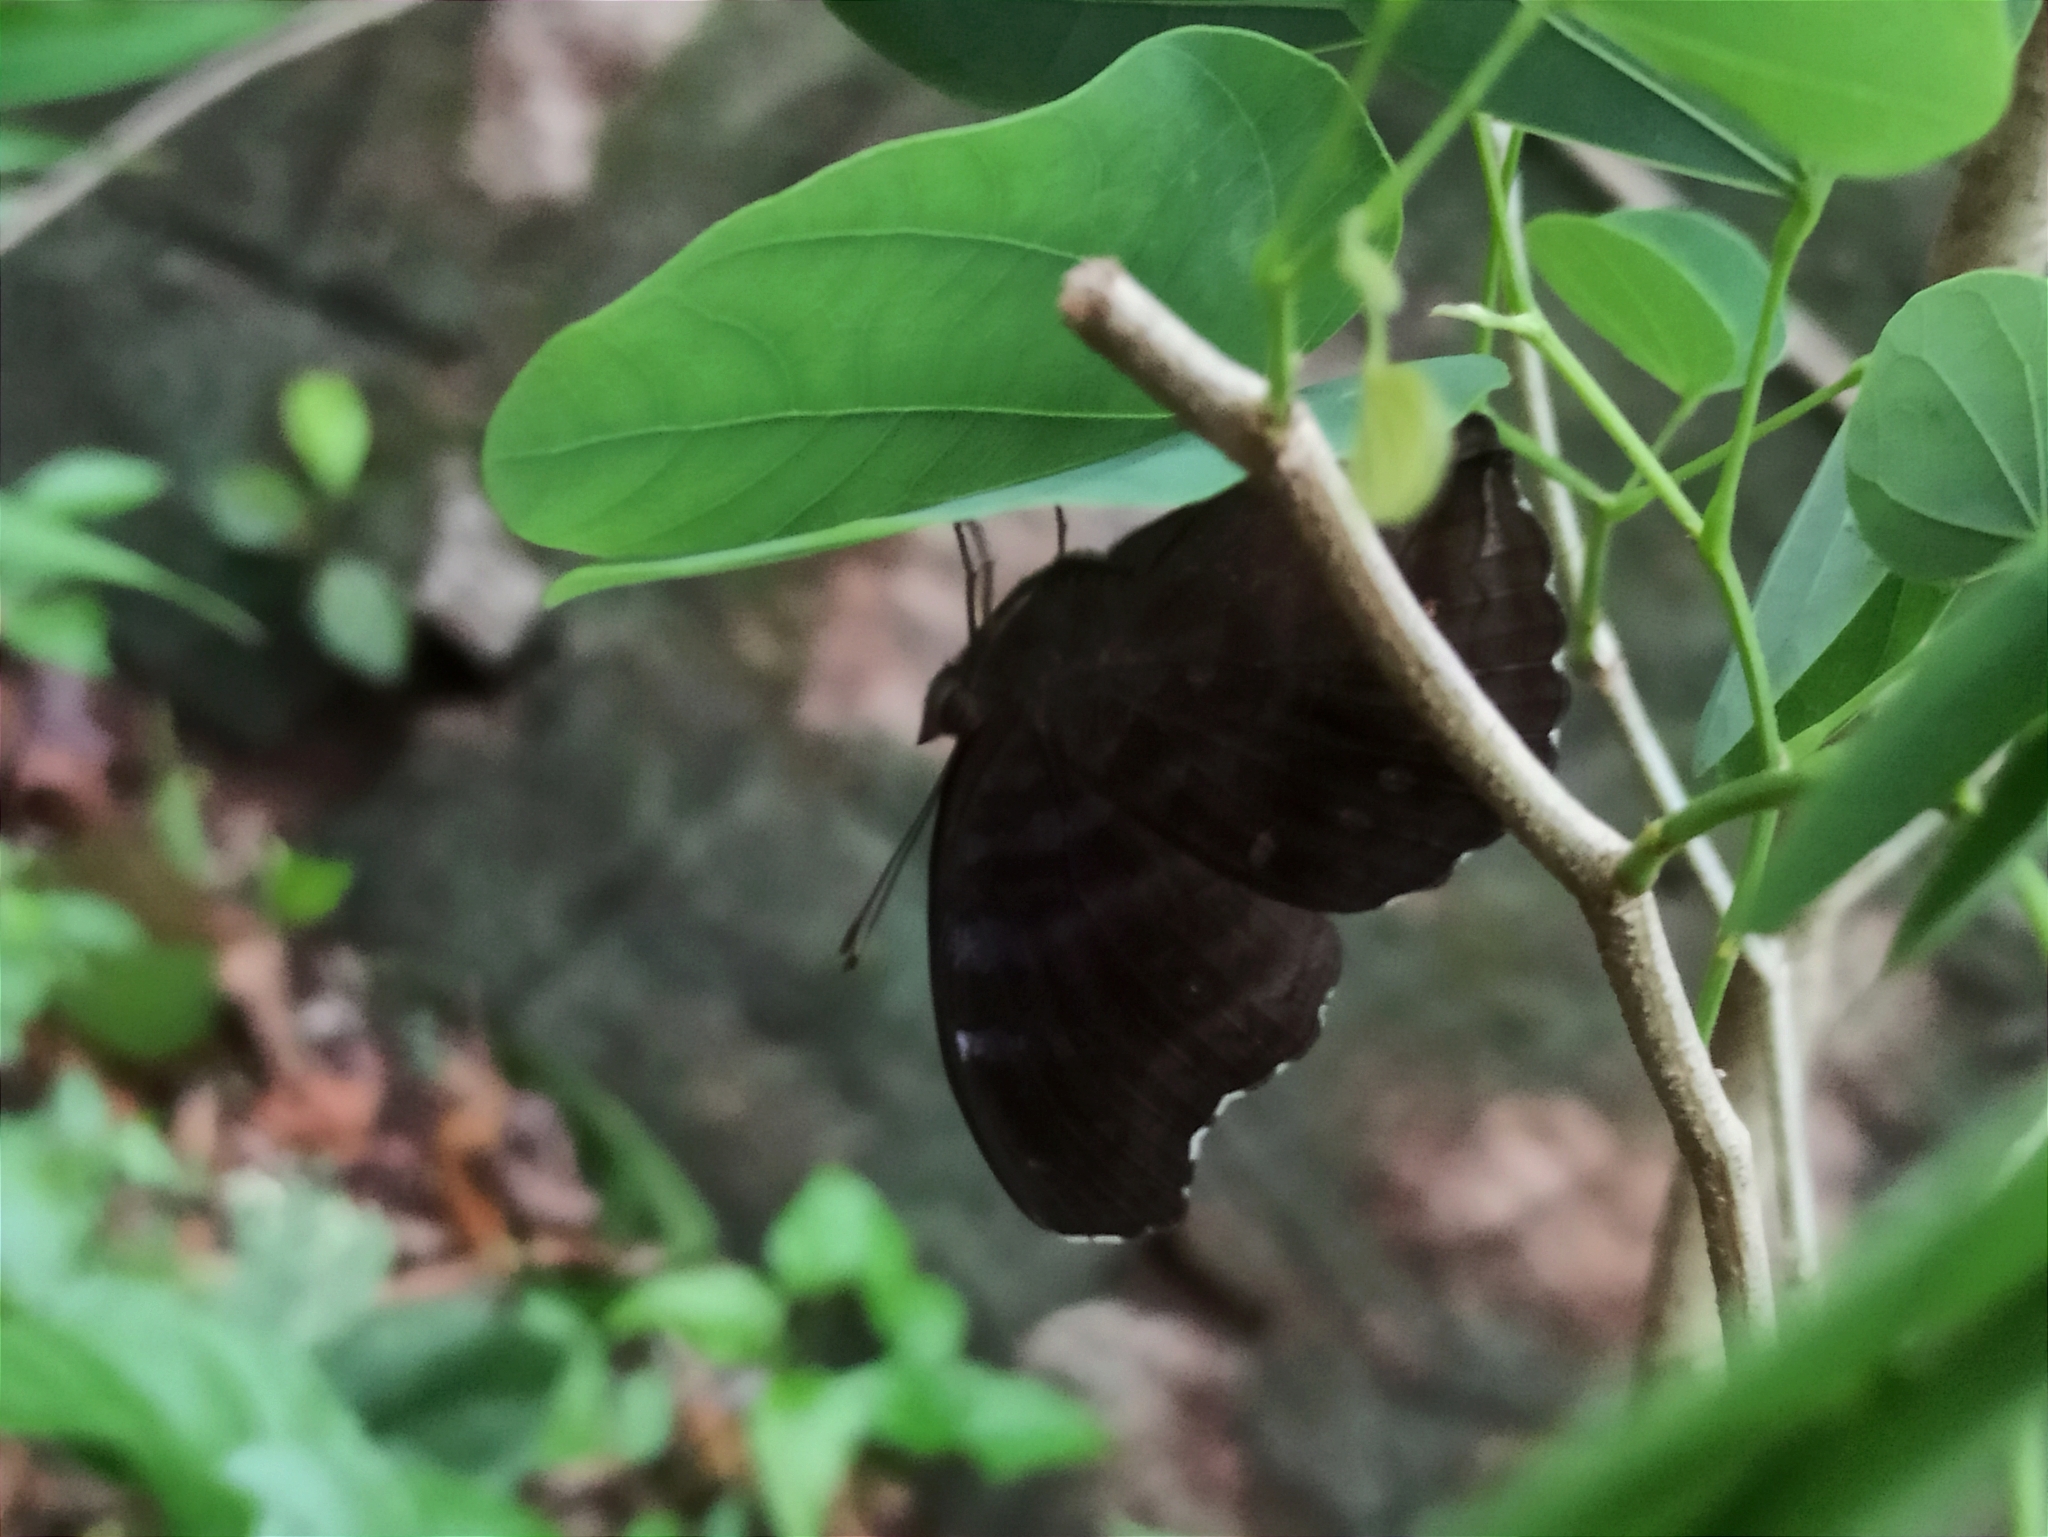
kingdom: Animalia
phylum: Arthropoda
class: Insecta
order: Lepidoptera
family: Nymphalidae
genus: Junonia
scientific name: Junonia iphita
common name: Chocolate pansy
